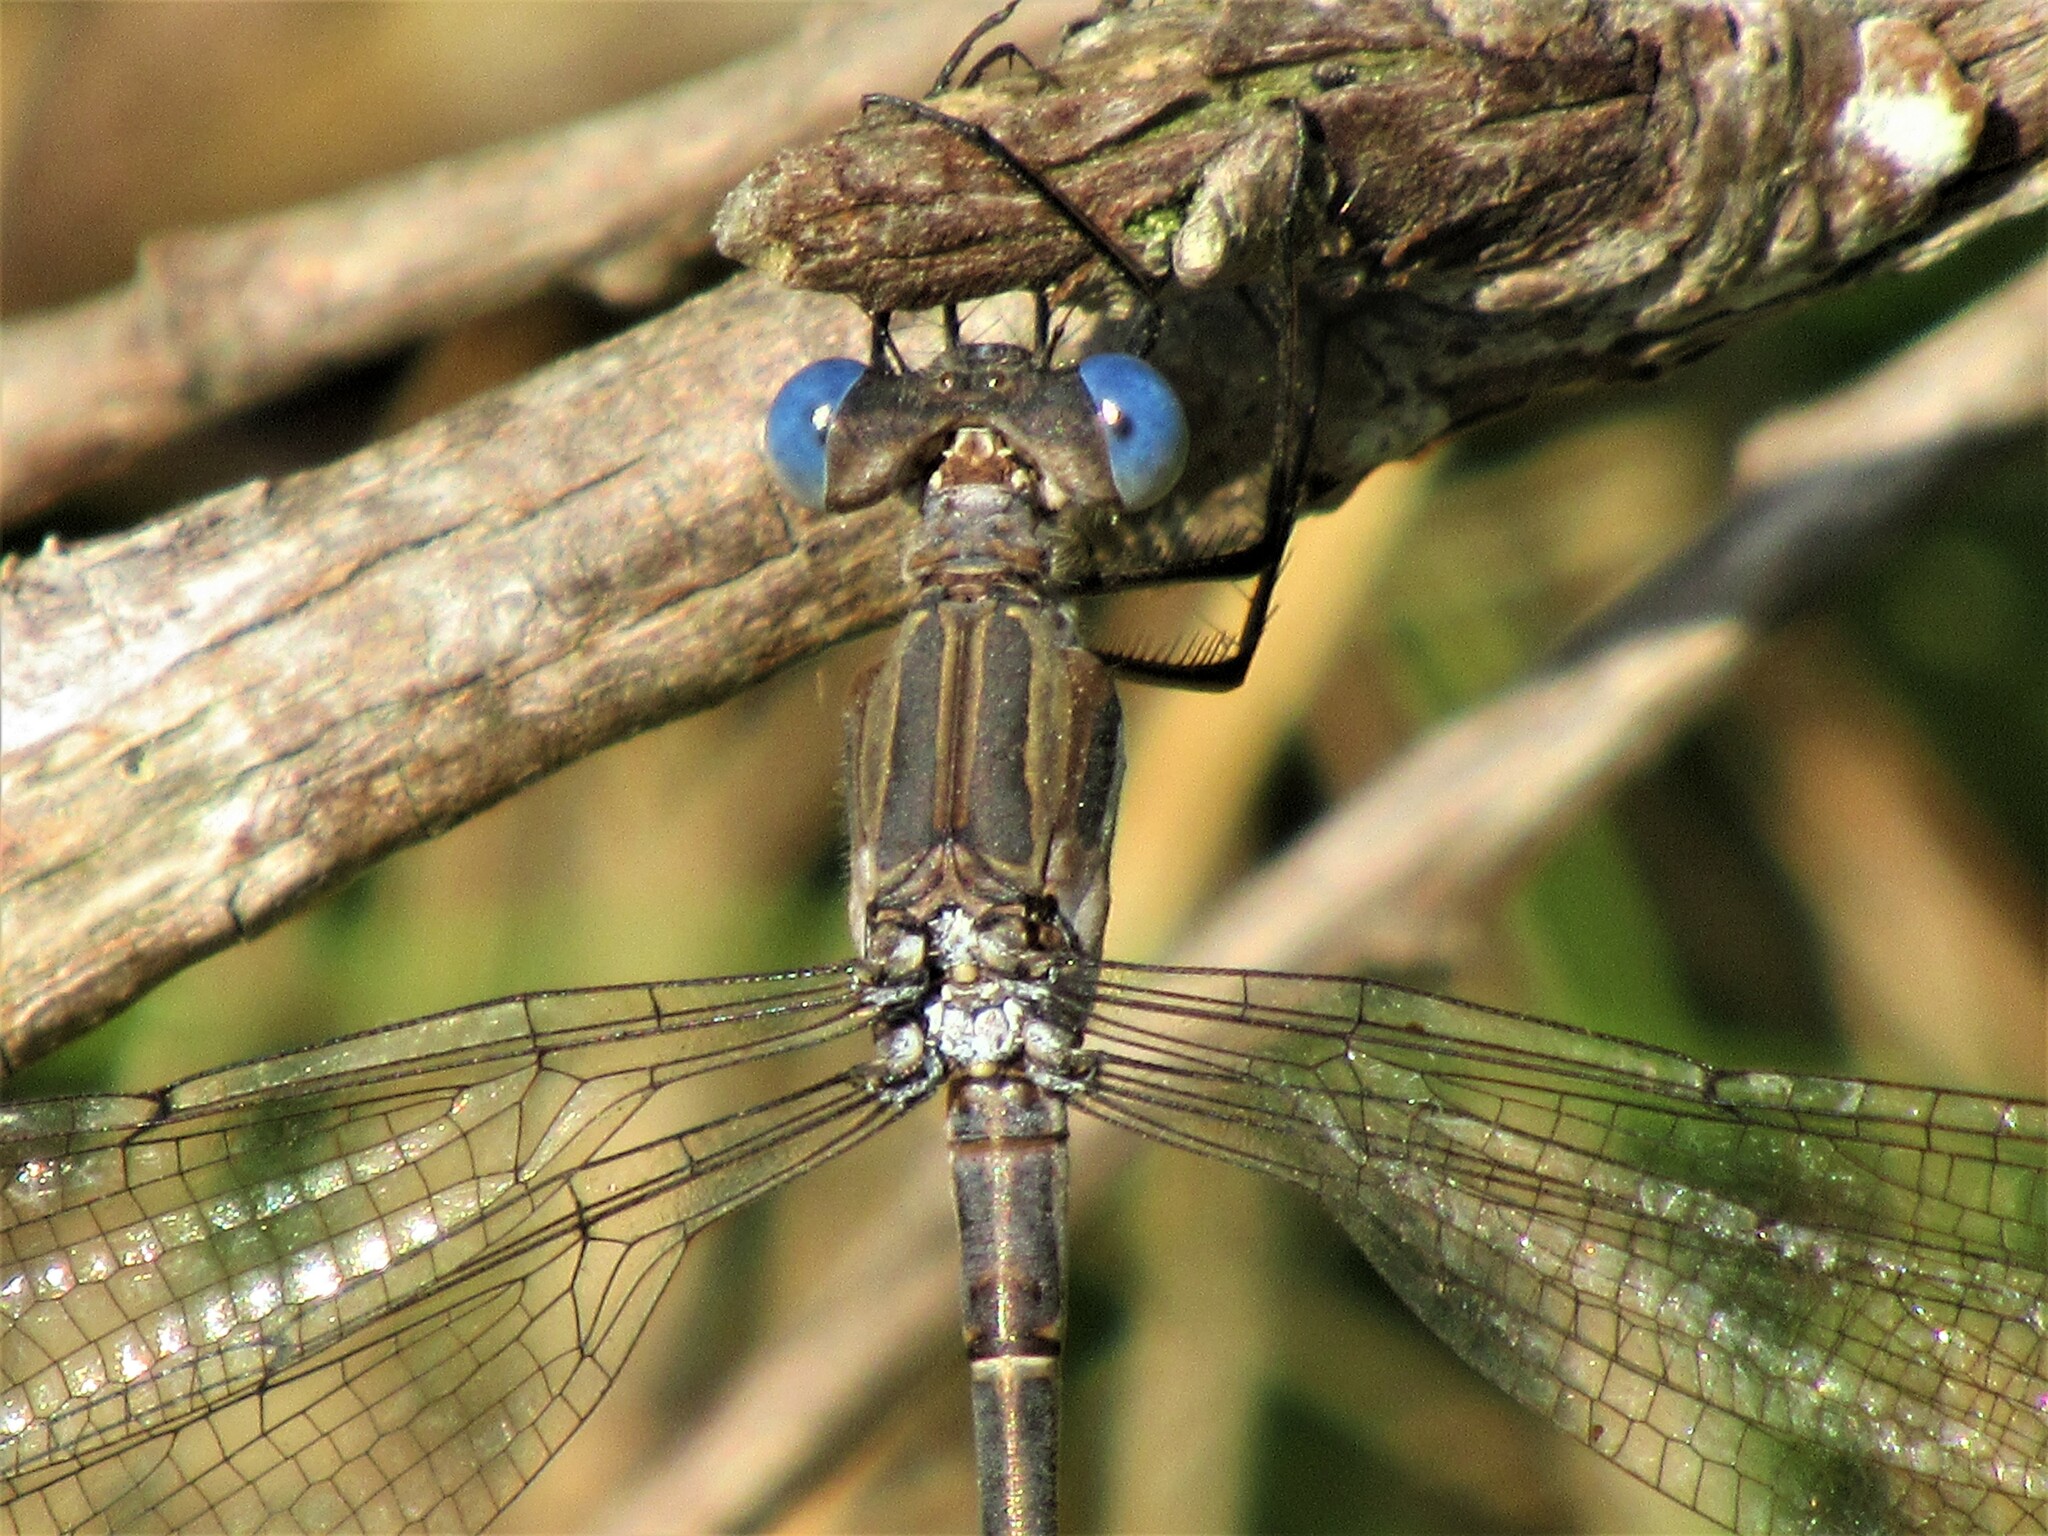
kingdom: Animalia
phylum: Arthropoda
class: Insecta
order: Odonata
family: Lestidae
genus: Archilestes
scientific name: Archilestes californicus
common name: California spreadwing
